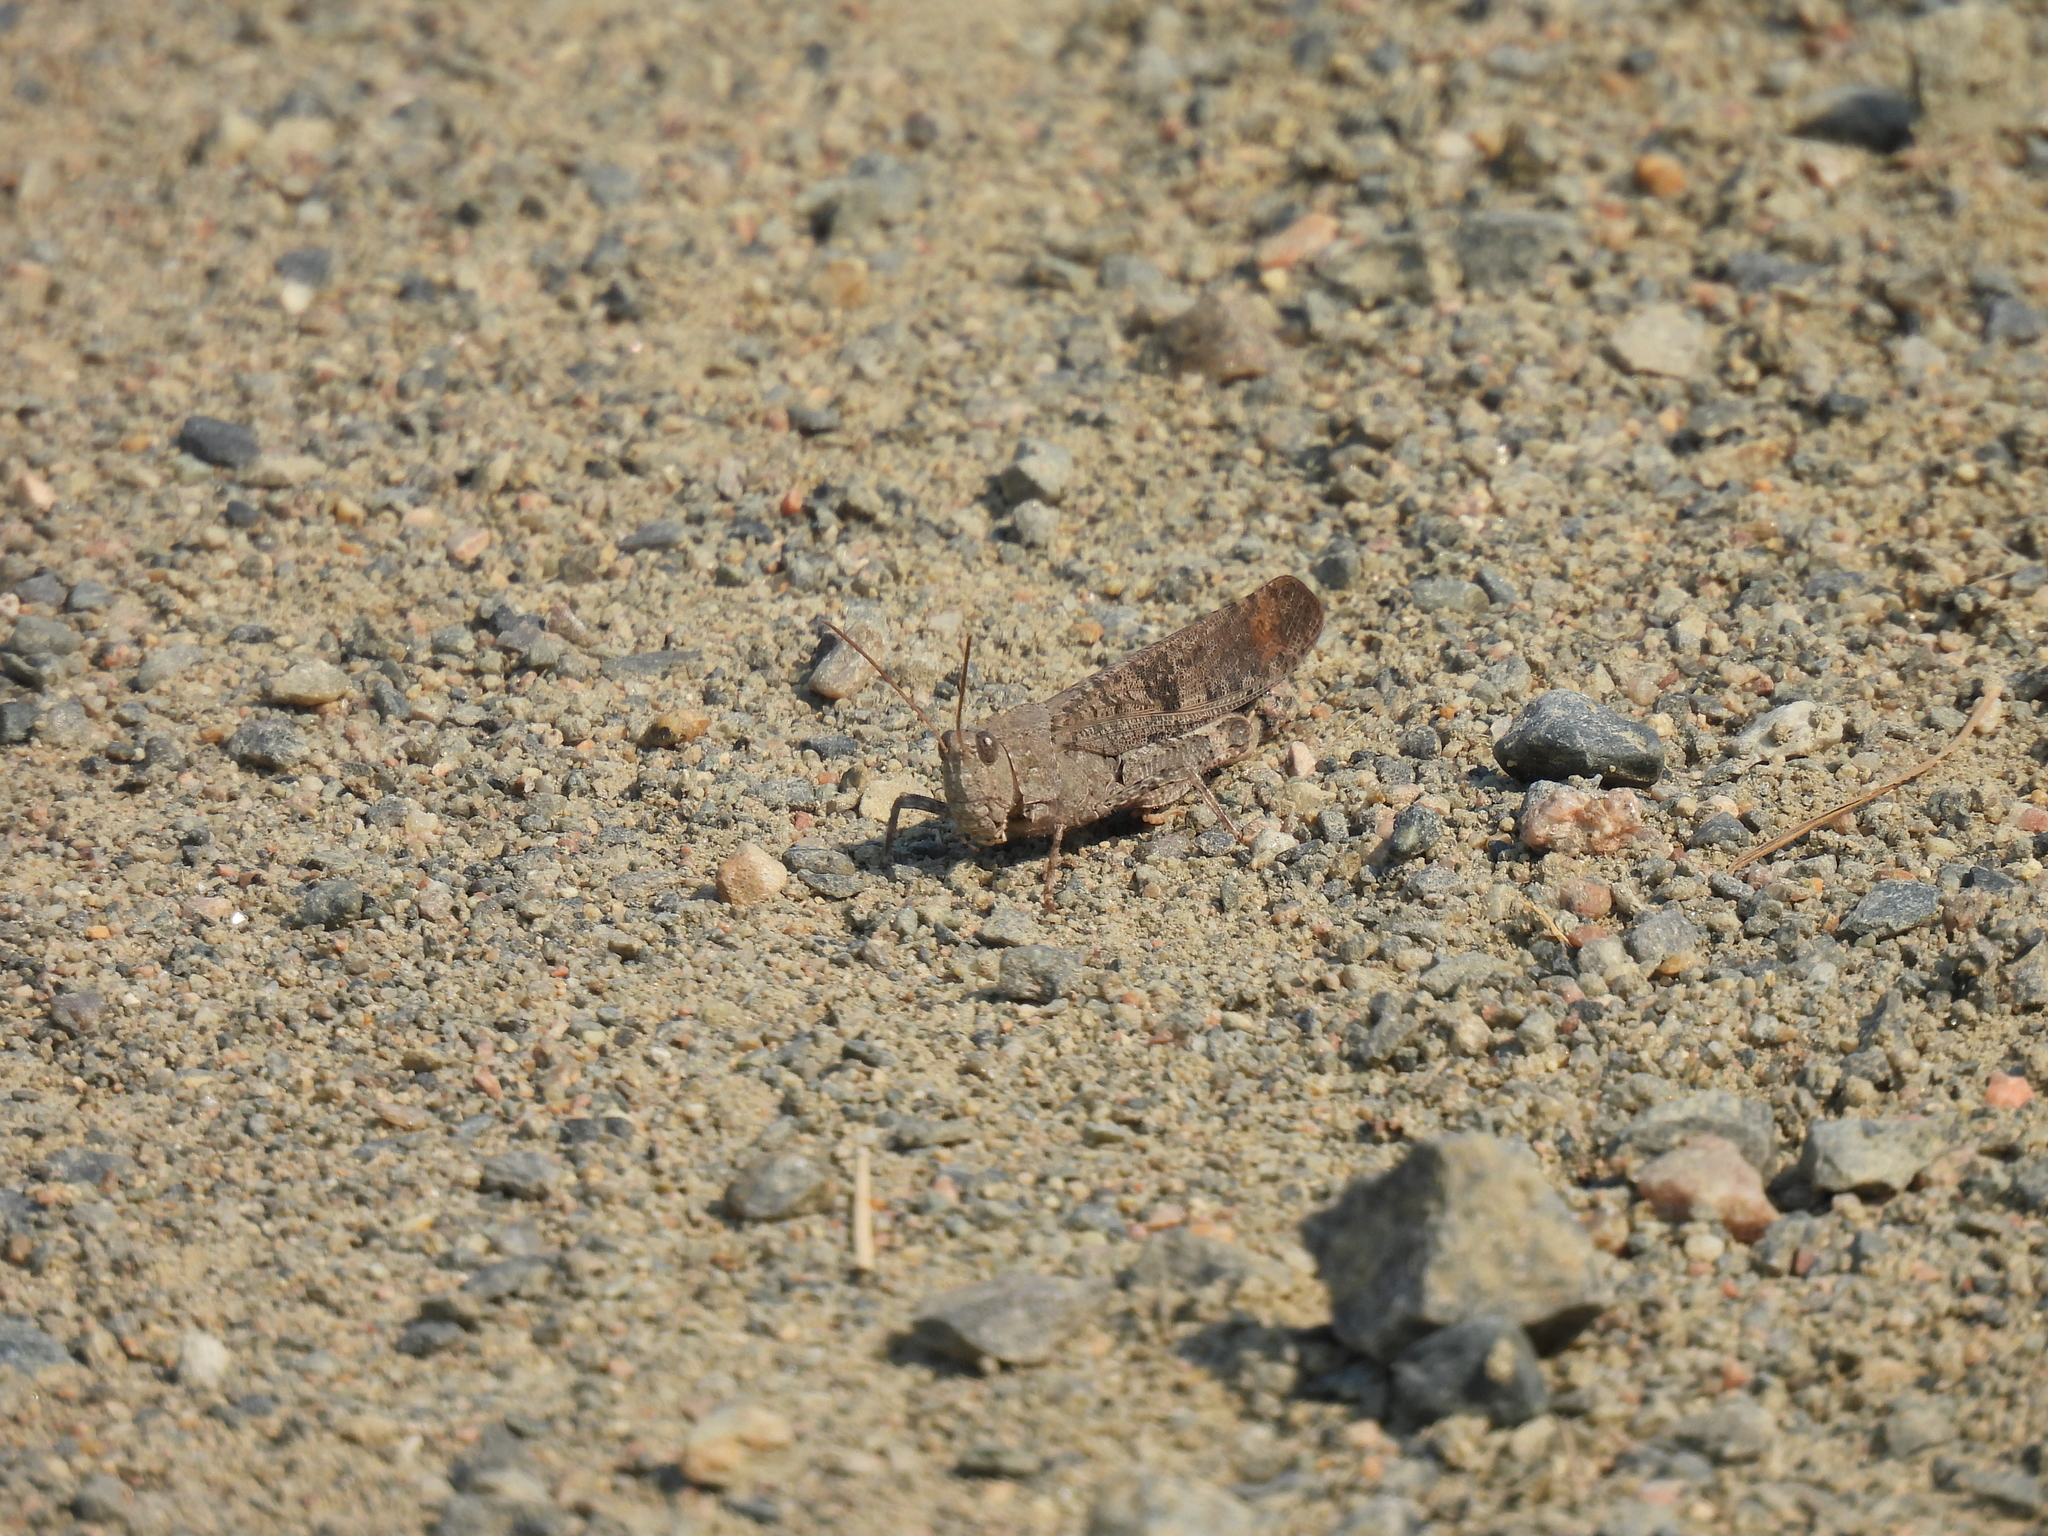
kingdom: Animalia
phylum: Arthropoda
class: Insecta
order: Orthoptera
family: Acrididae
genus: Dissosteira
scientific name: Dissosteira carolina
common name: Carolina grasshopper
